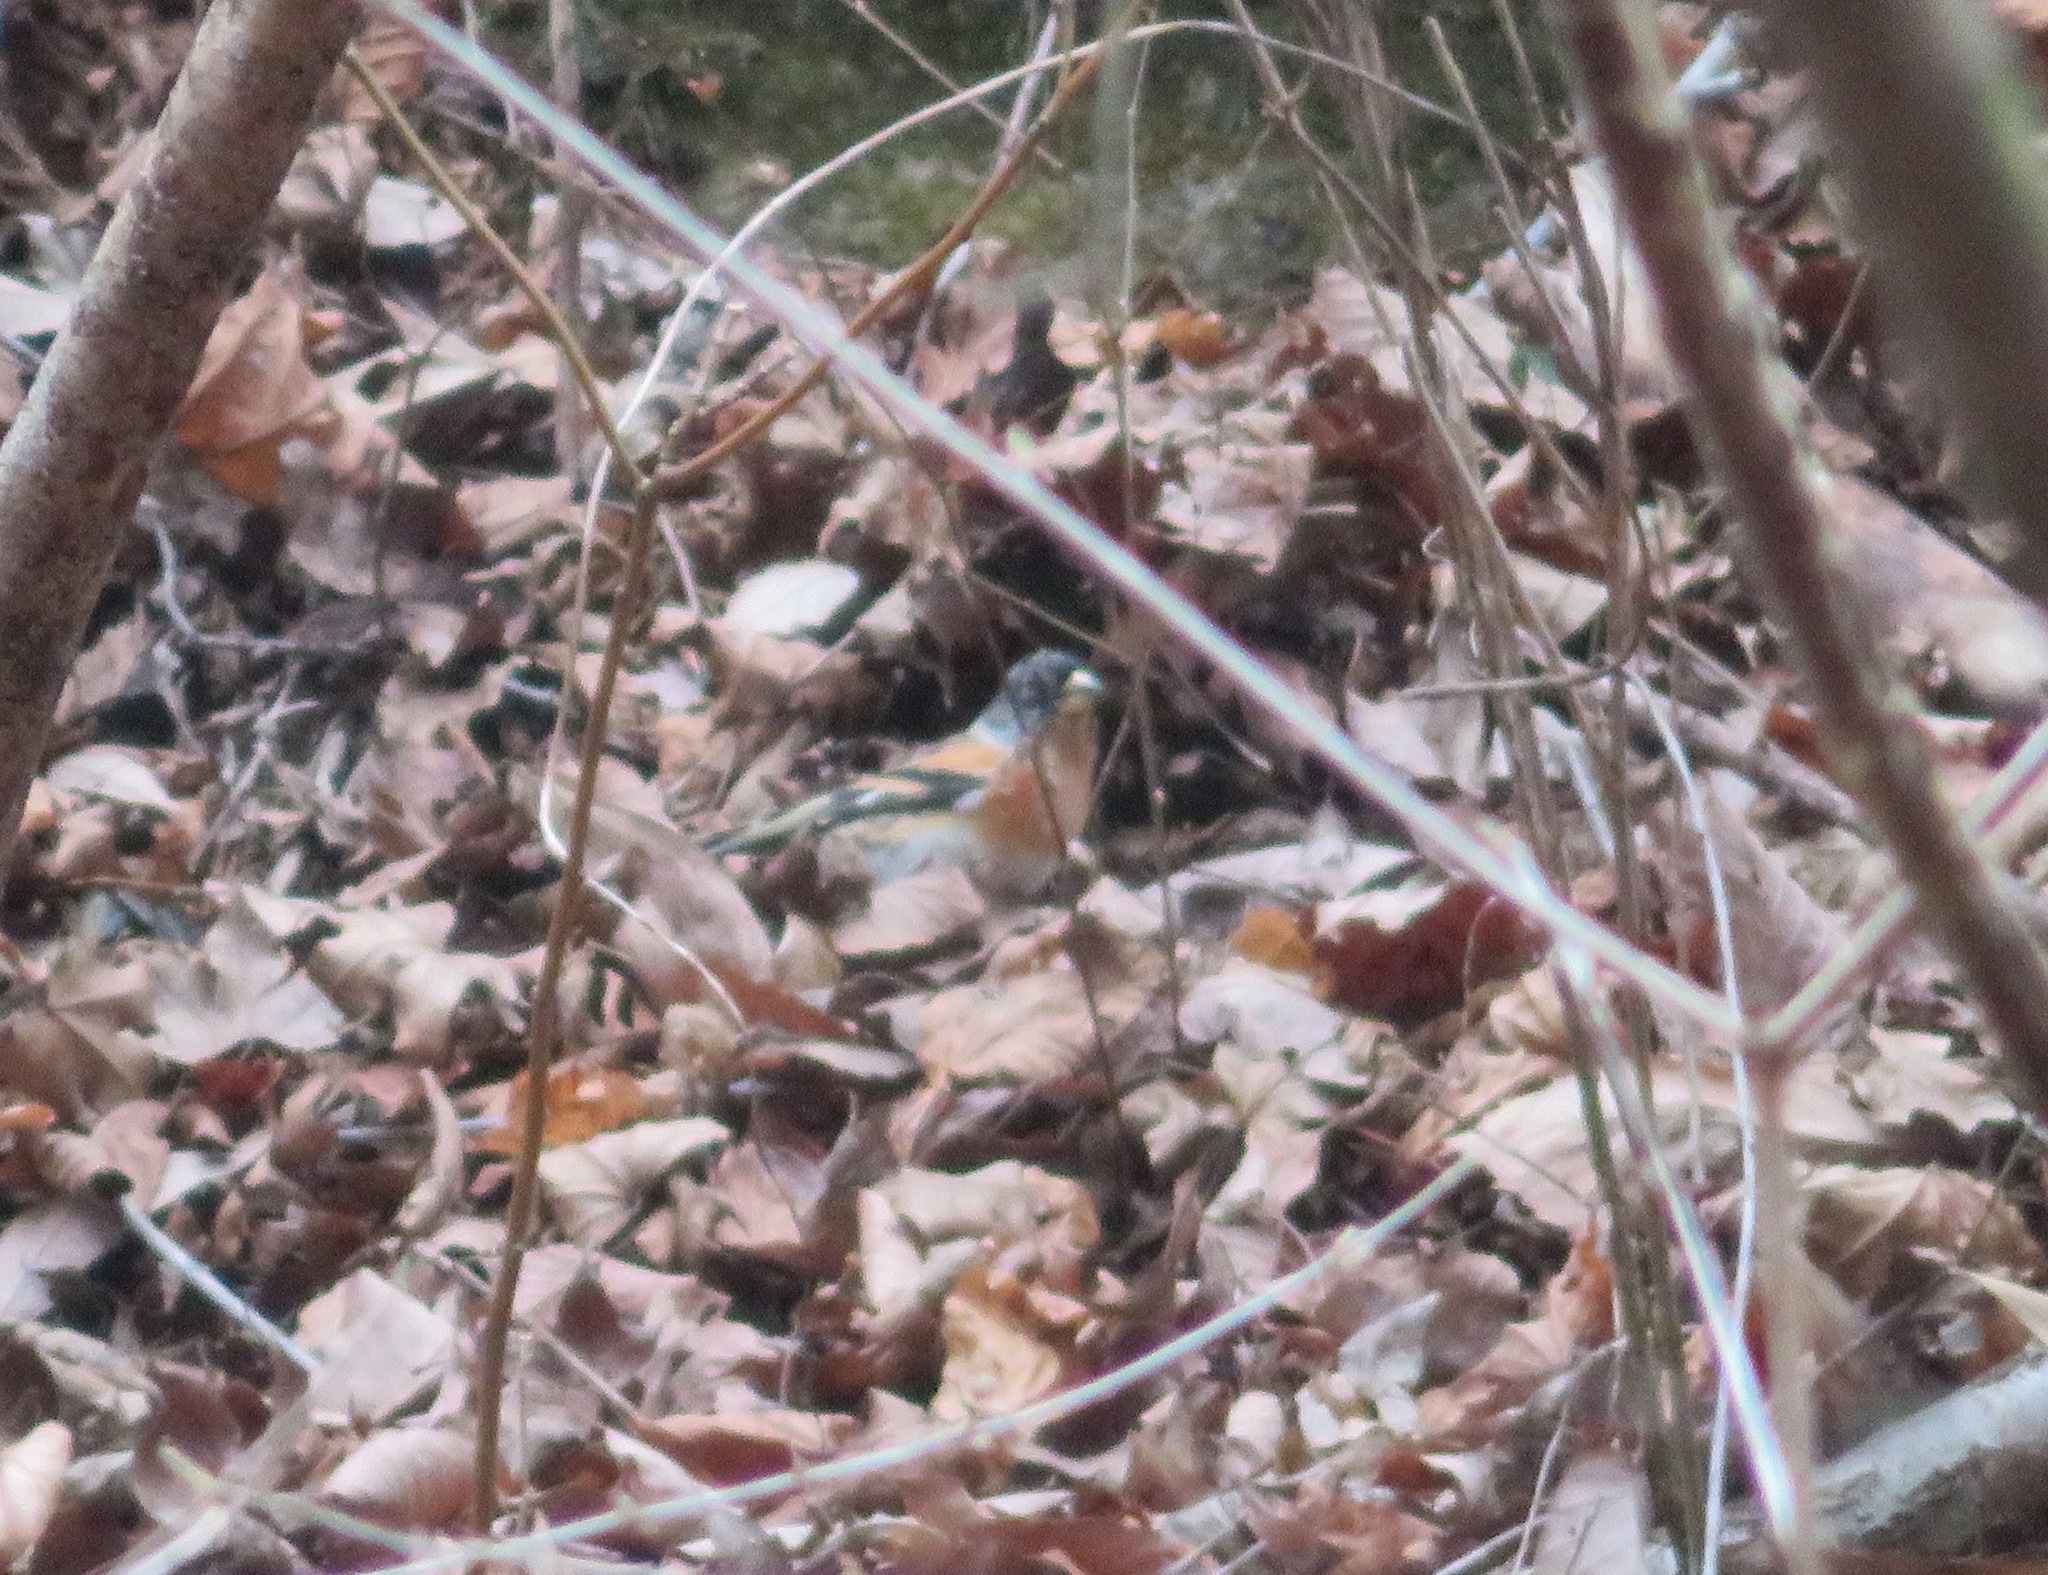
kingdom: Animalia
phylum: Chordata
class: Aves
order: Passeriformes
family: Fringillidae
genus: Fringilla
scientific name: Fringilla montifringilla
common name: Brambling
